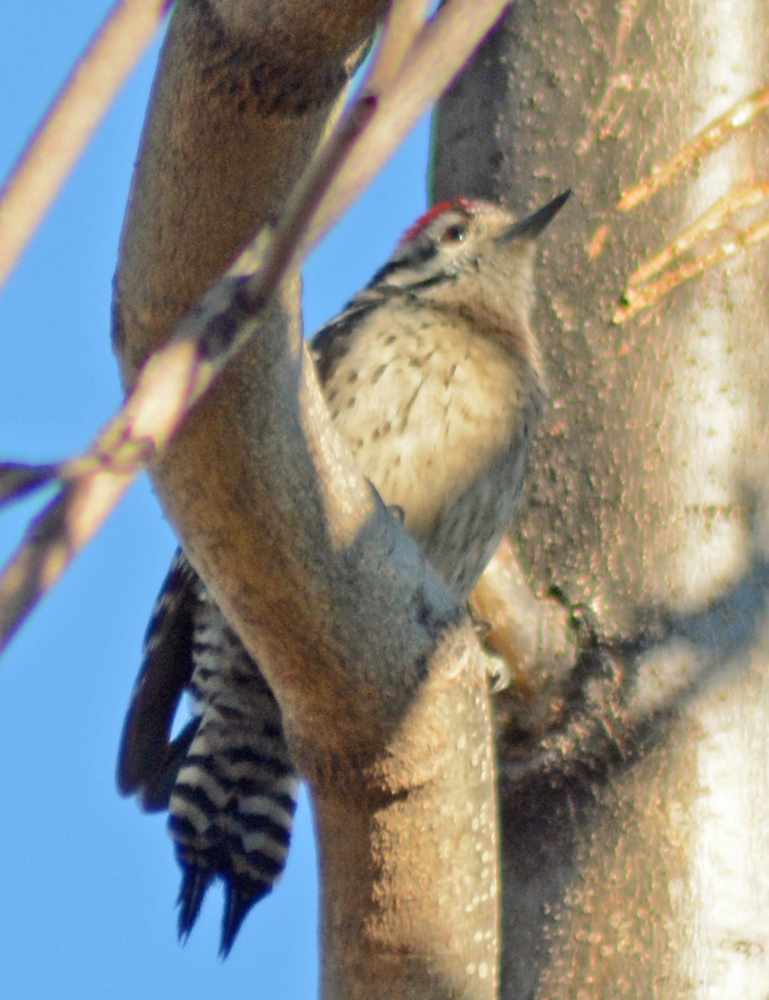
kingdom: Animalia
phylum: Chordata
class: Aves
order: Piciformes
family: Picidae
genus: Dryobates
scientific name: Dryobates scalaris
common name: Ladder-backed woodpecker
